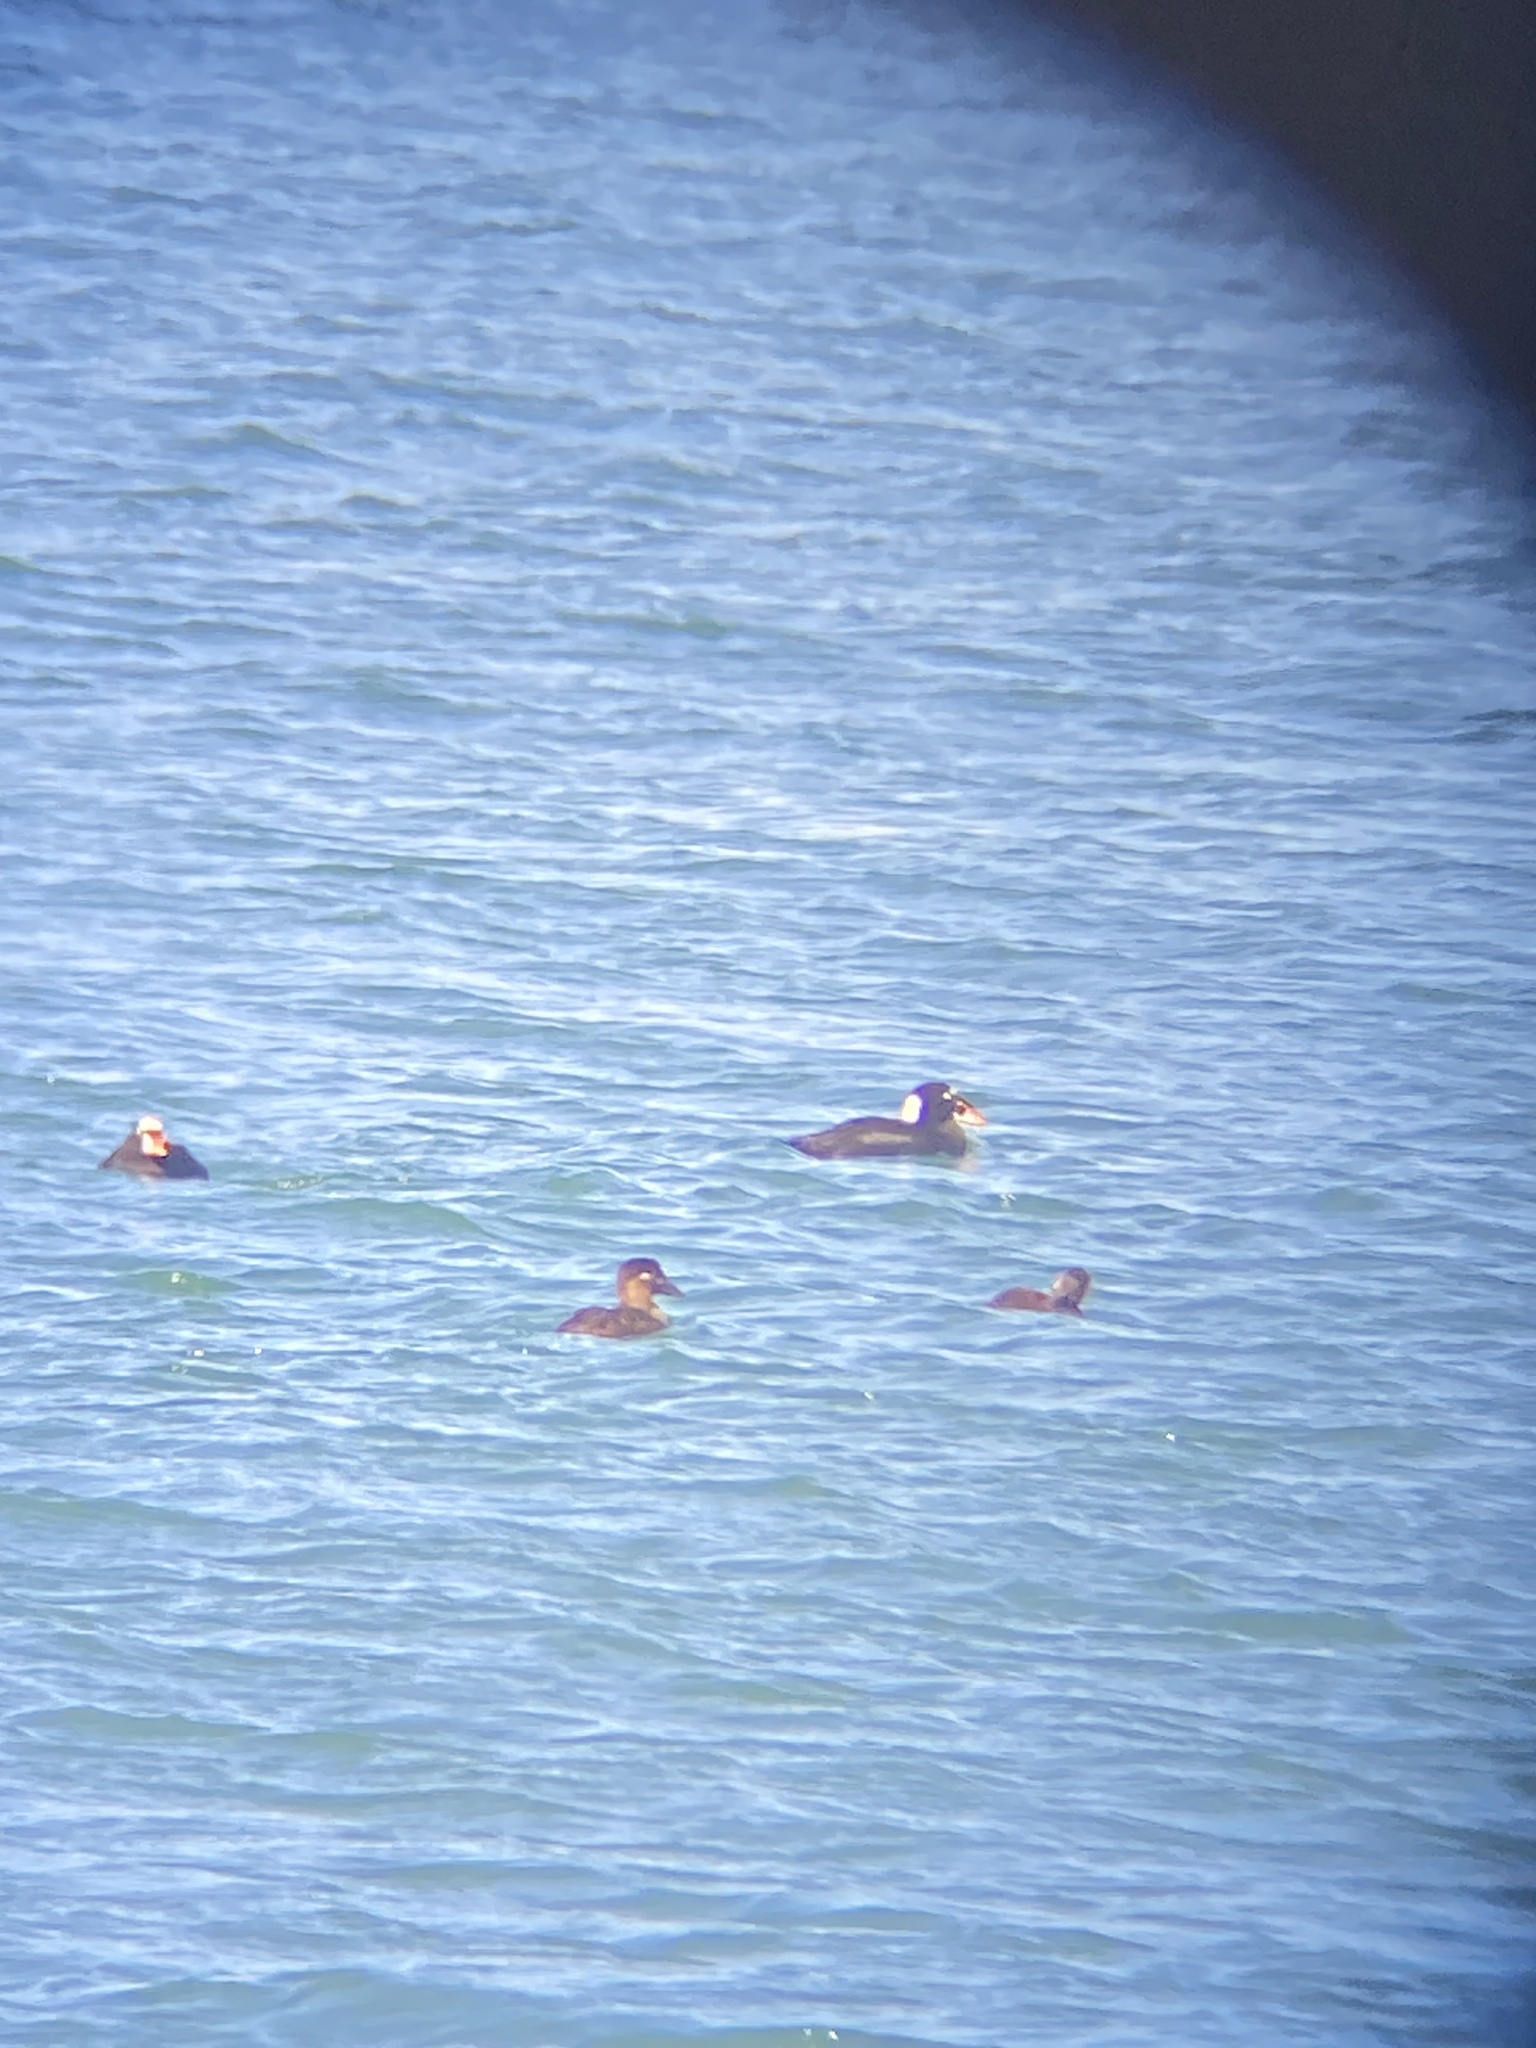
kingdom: Animalia
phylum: Chordata
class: Aves
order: Anseriformes
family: Anatidae
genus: Melanitta
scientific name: Melanitta perspicillata
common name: Surf scoter
